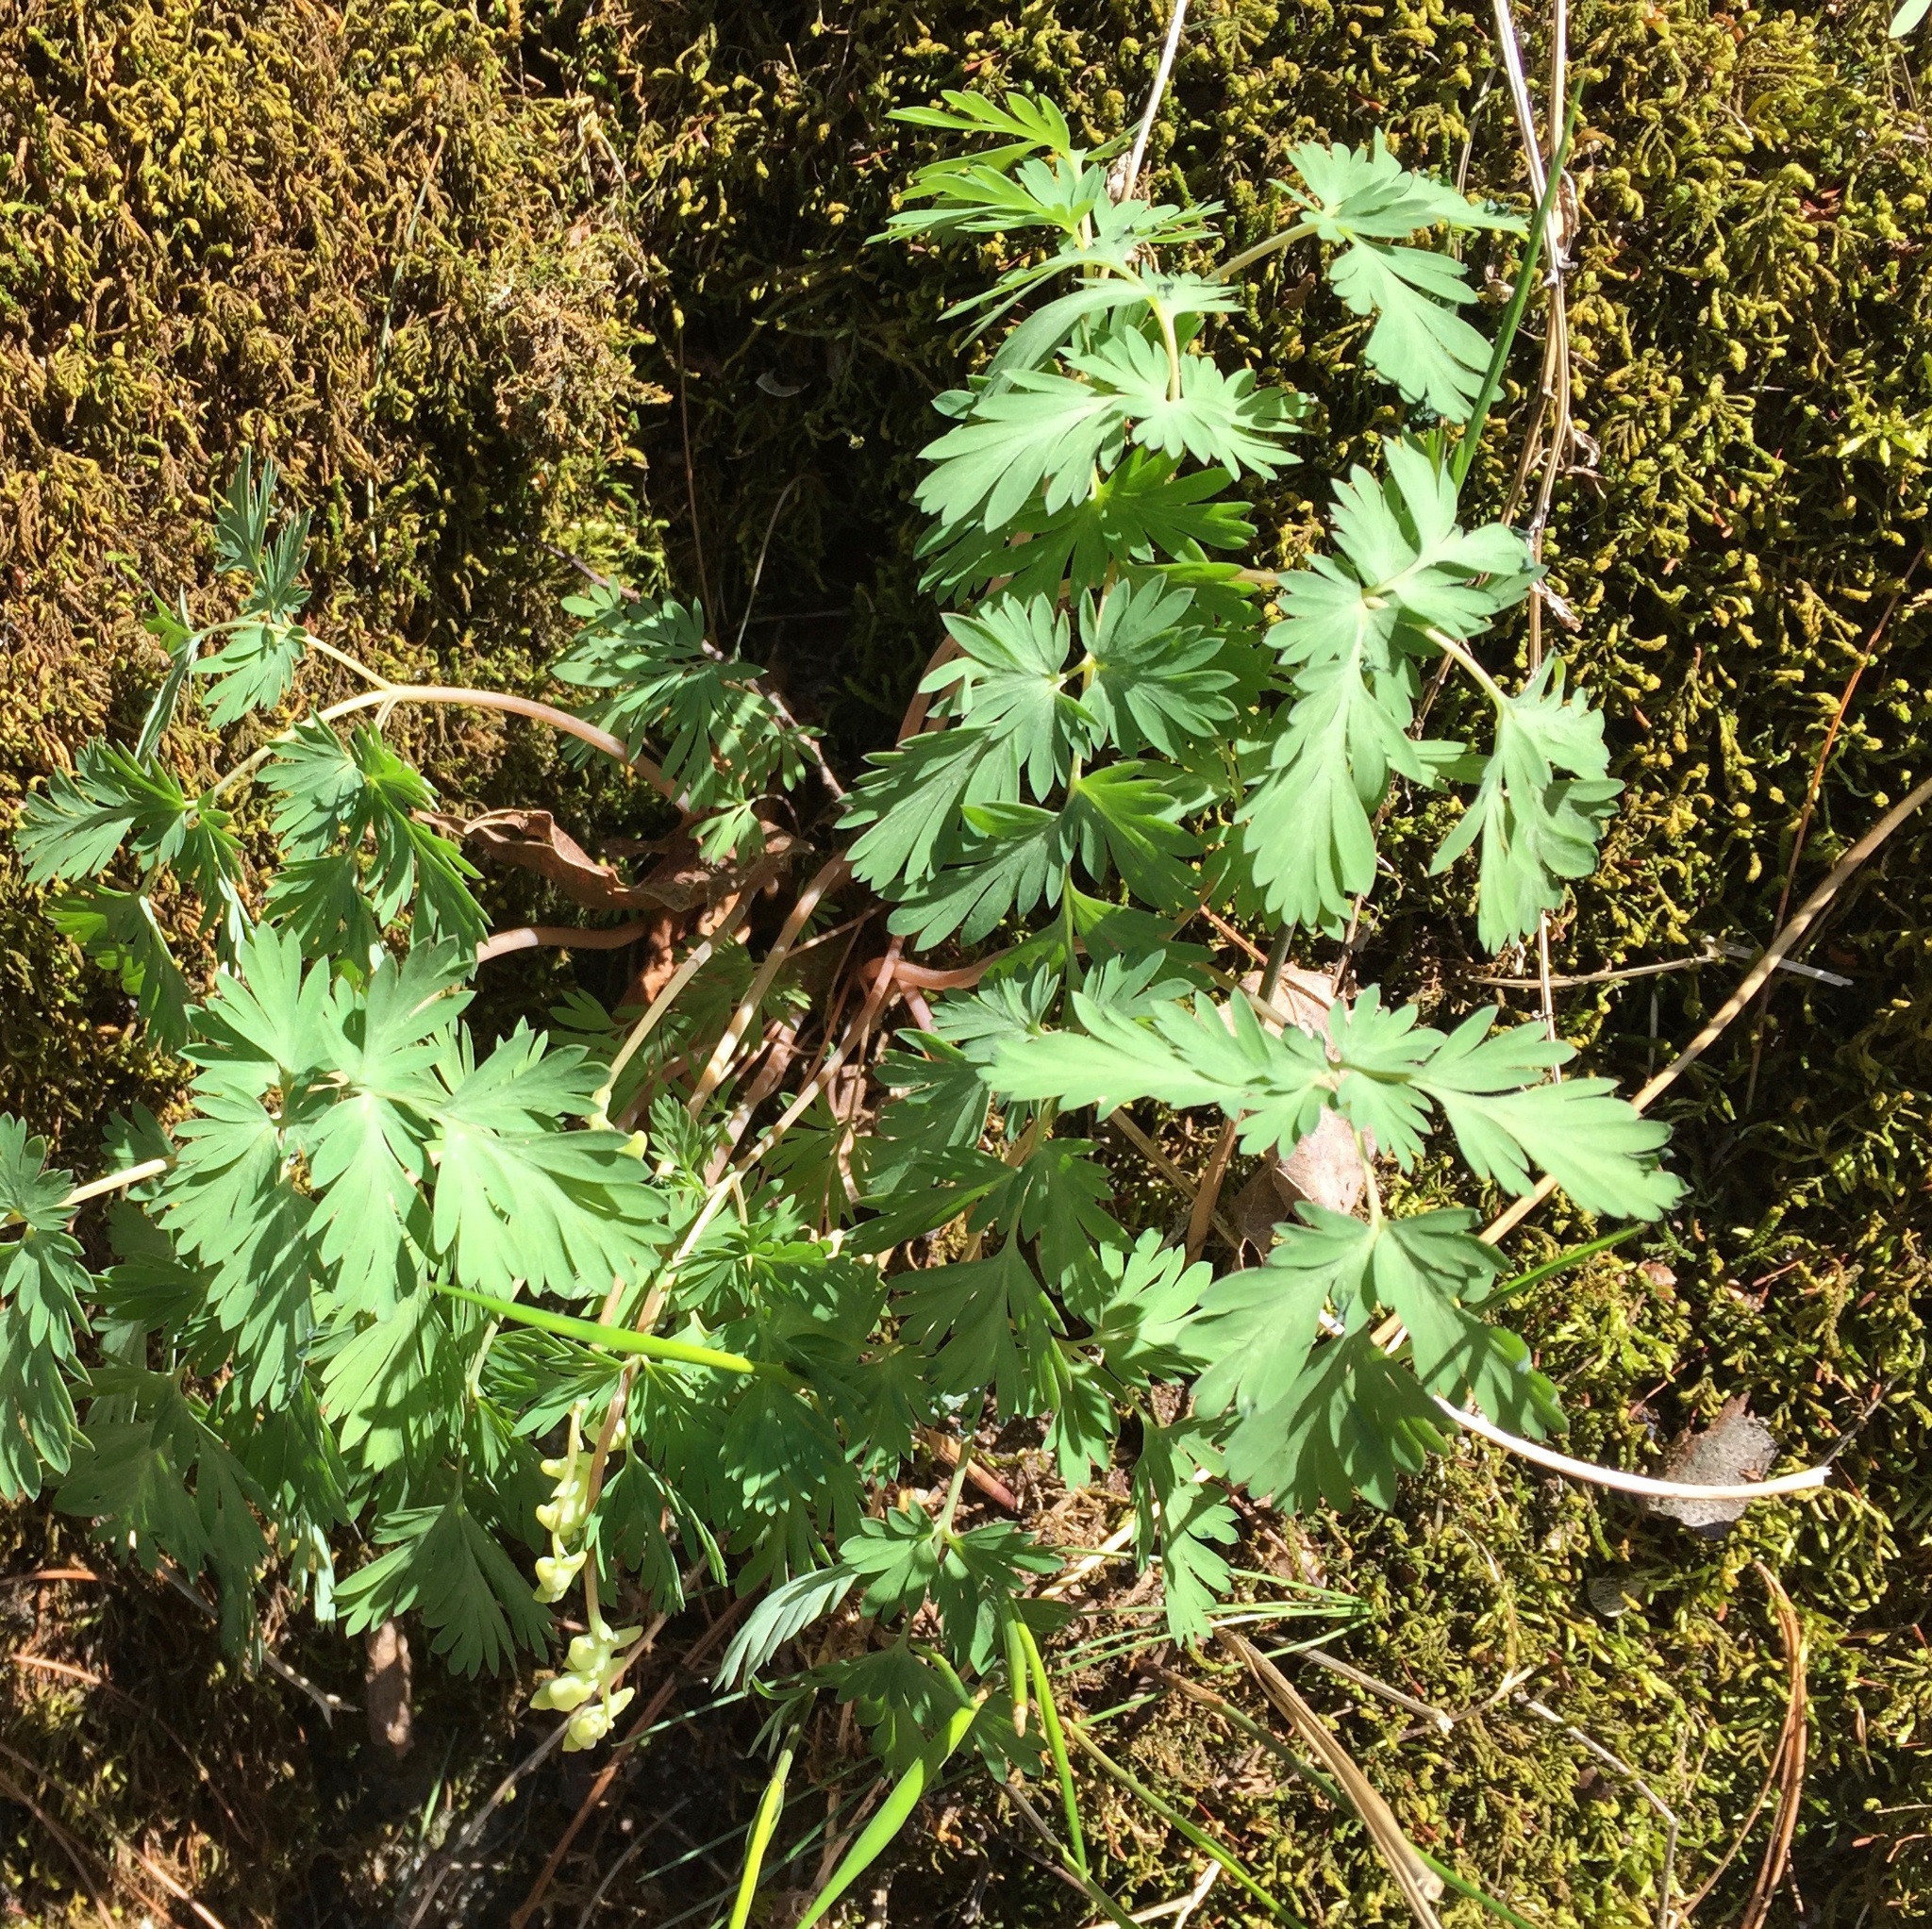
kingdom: Plantae
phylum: Tracheophyta
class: Magnoliopsida
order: Ranunculales
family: Papaveraceae
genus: Dicentra
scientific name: Dicentra cucullaria
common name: Dutchman's breeches
